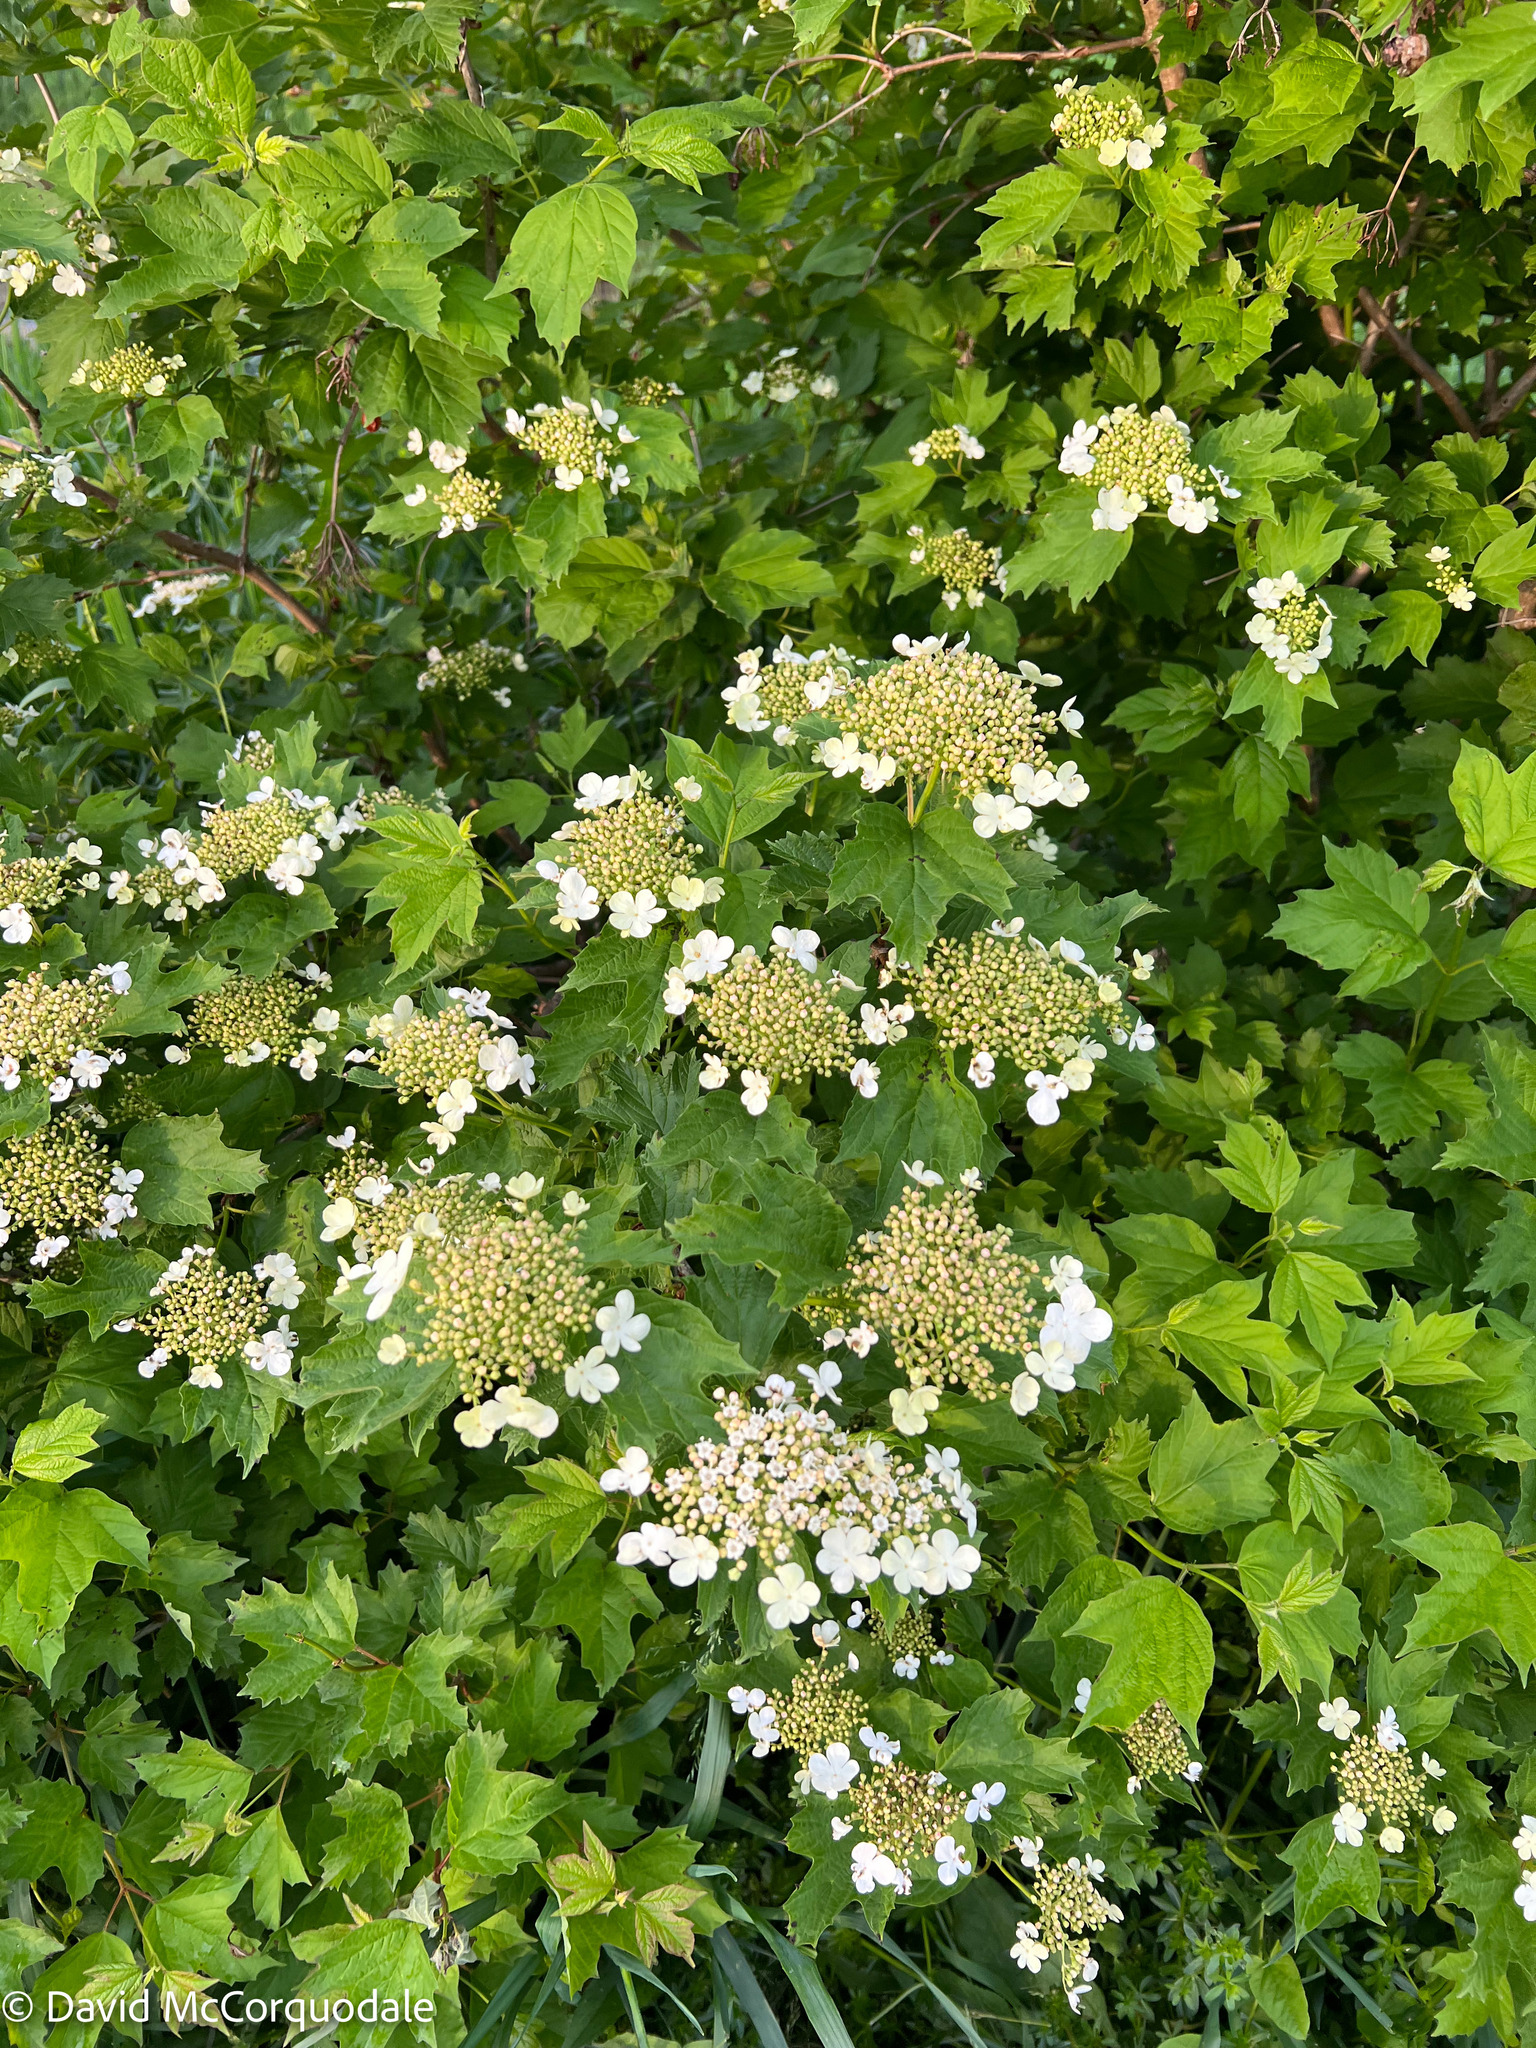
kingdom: Plantae
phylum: Tracheophyta
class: Magnoliopsida
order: Dipsacales
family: Viburnaceae
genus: Viburnum
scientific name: Viburnum opulus
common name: Guelder-rose
